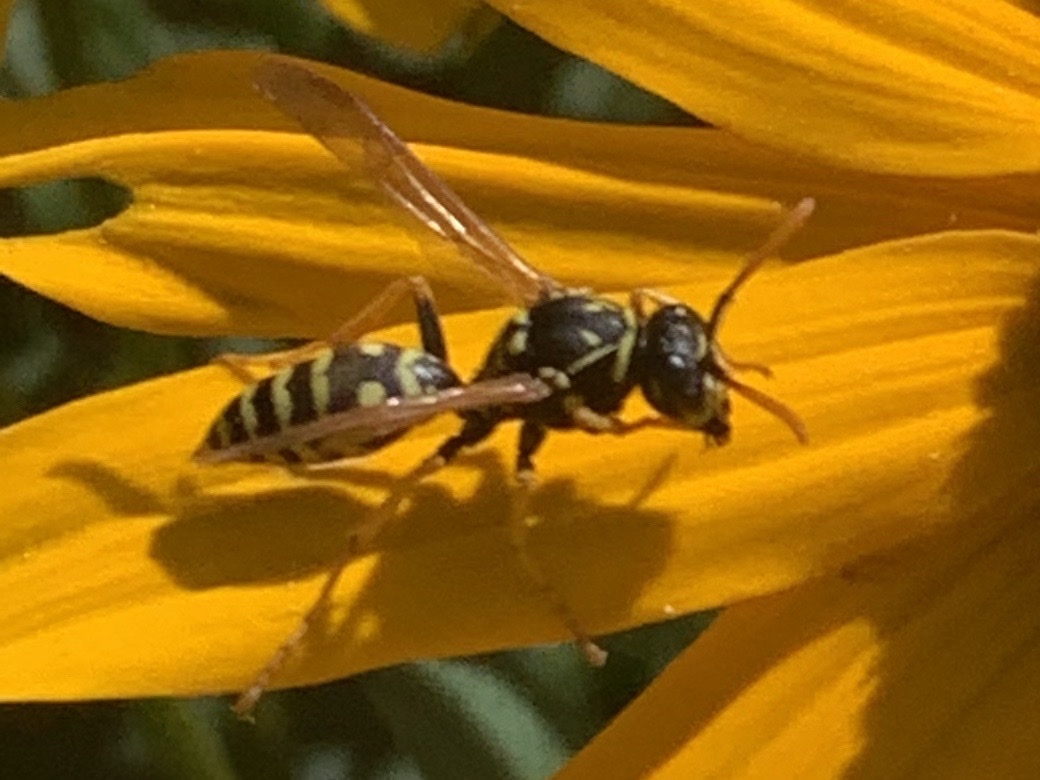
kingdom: Animalia
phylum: Arthropoda
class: Insecta
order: Hymenoptera
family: Eumenidae
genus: Polistes
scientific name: Polistes dominula
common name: Paper wasp
